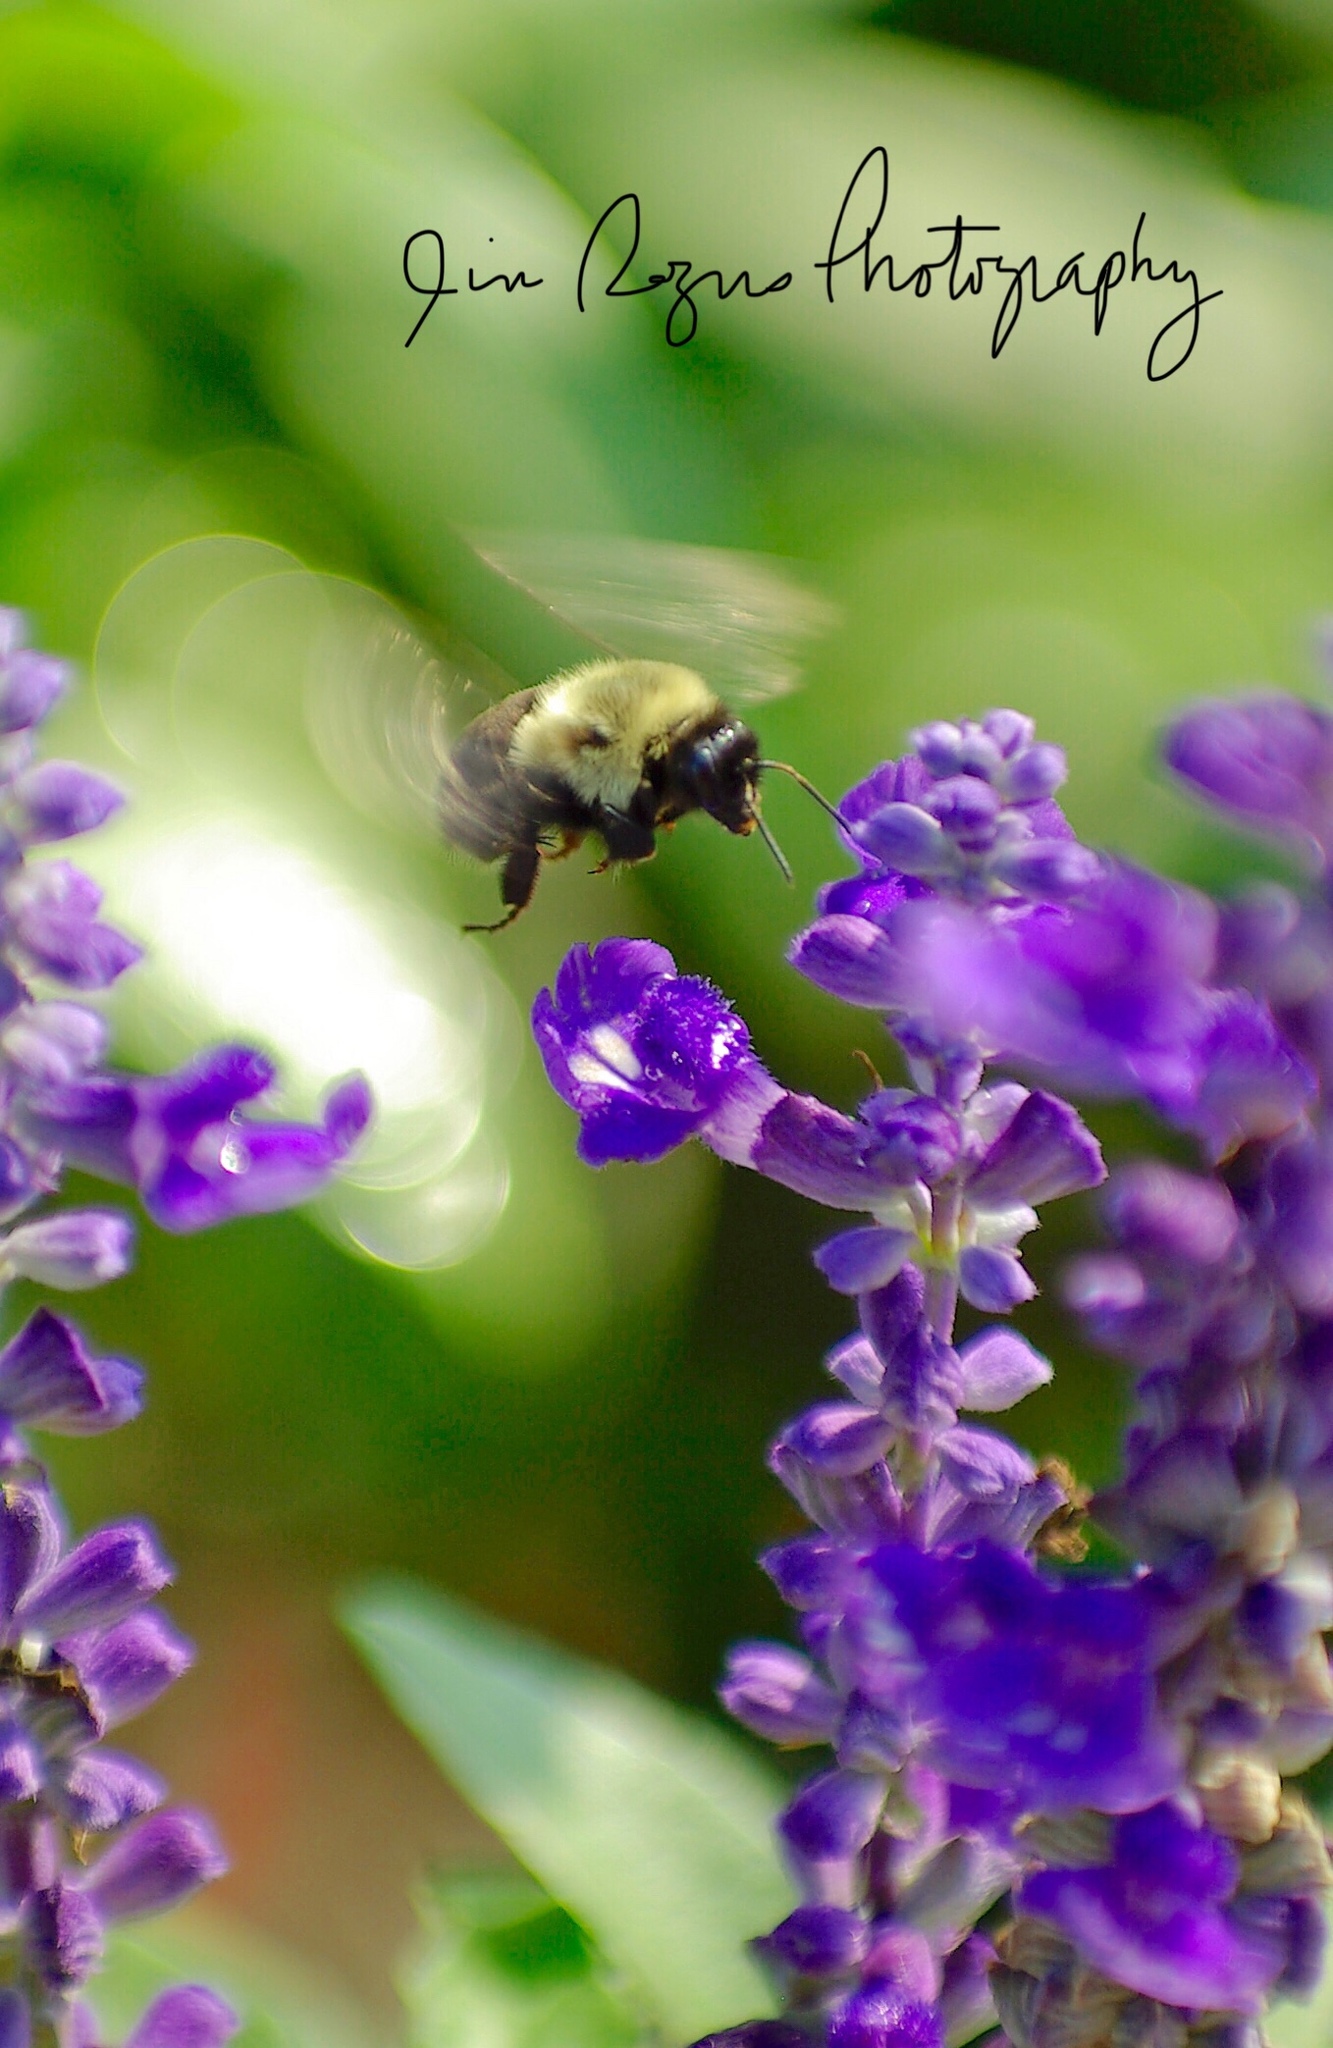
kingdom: Animalia
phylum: Arthropoda
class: Insecta
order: Hymenoptera
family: Apidae
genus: Bombus
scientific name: Bombus impatiens
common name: Common eastern bumble bee
